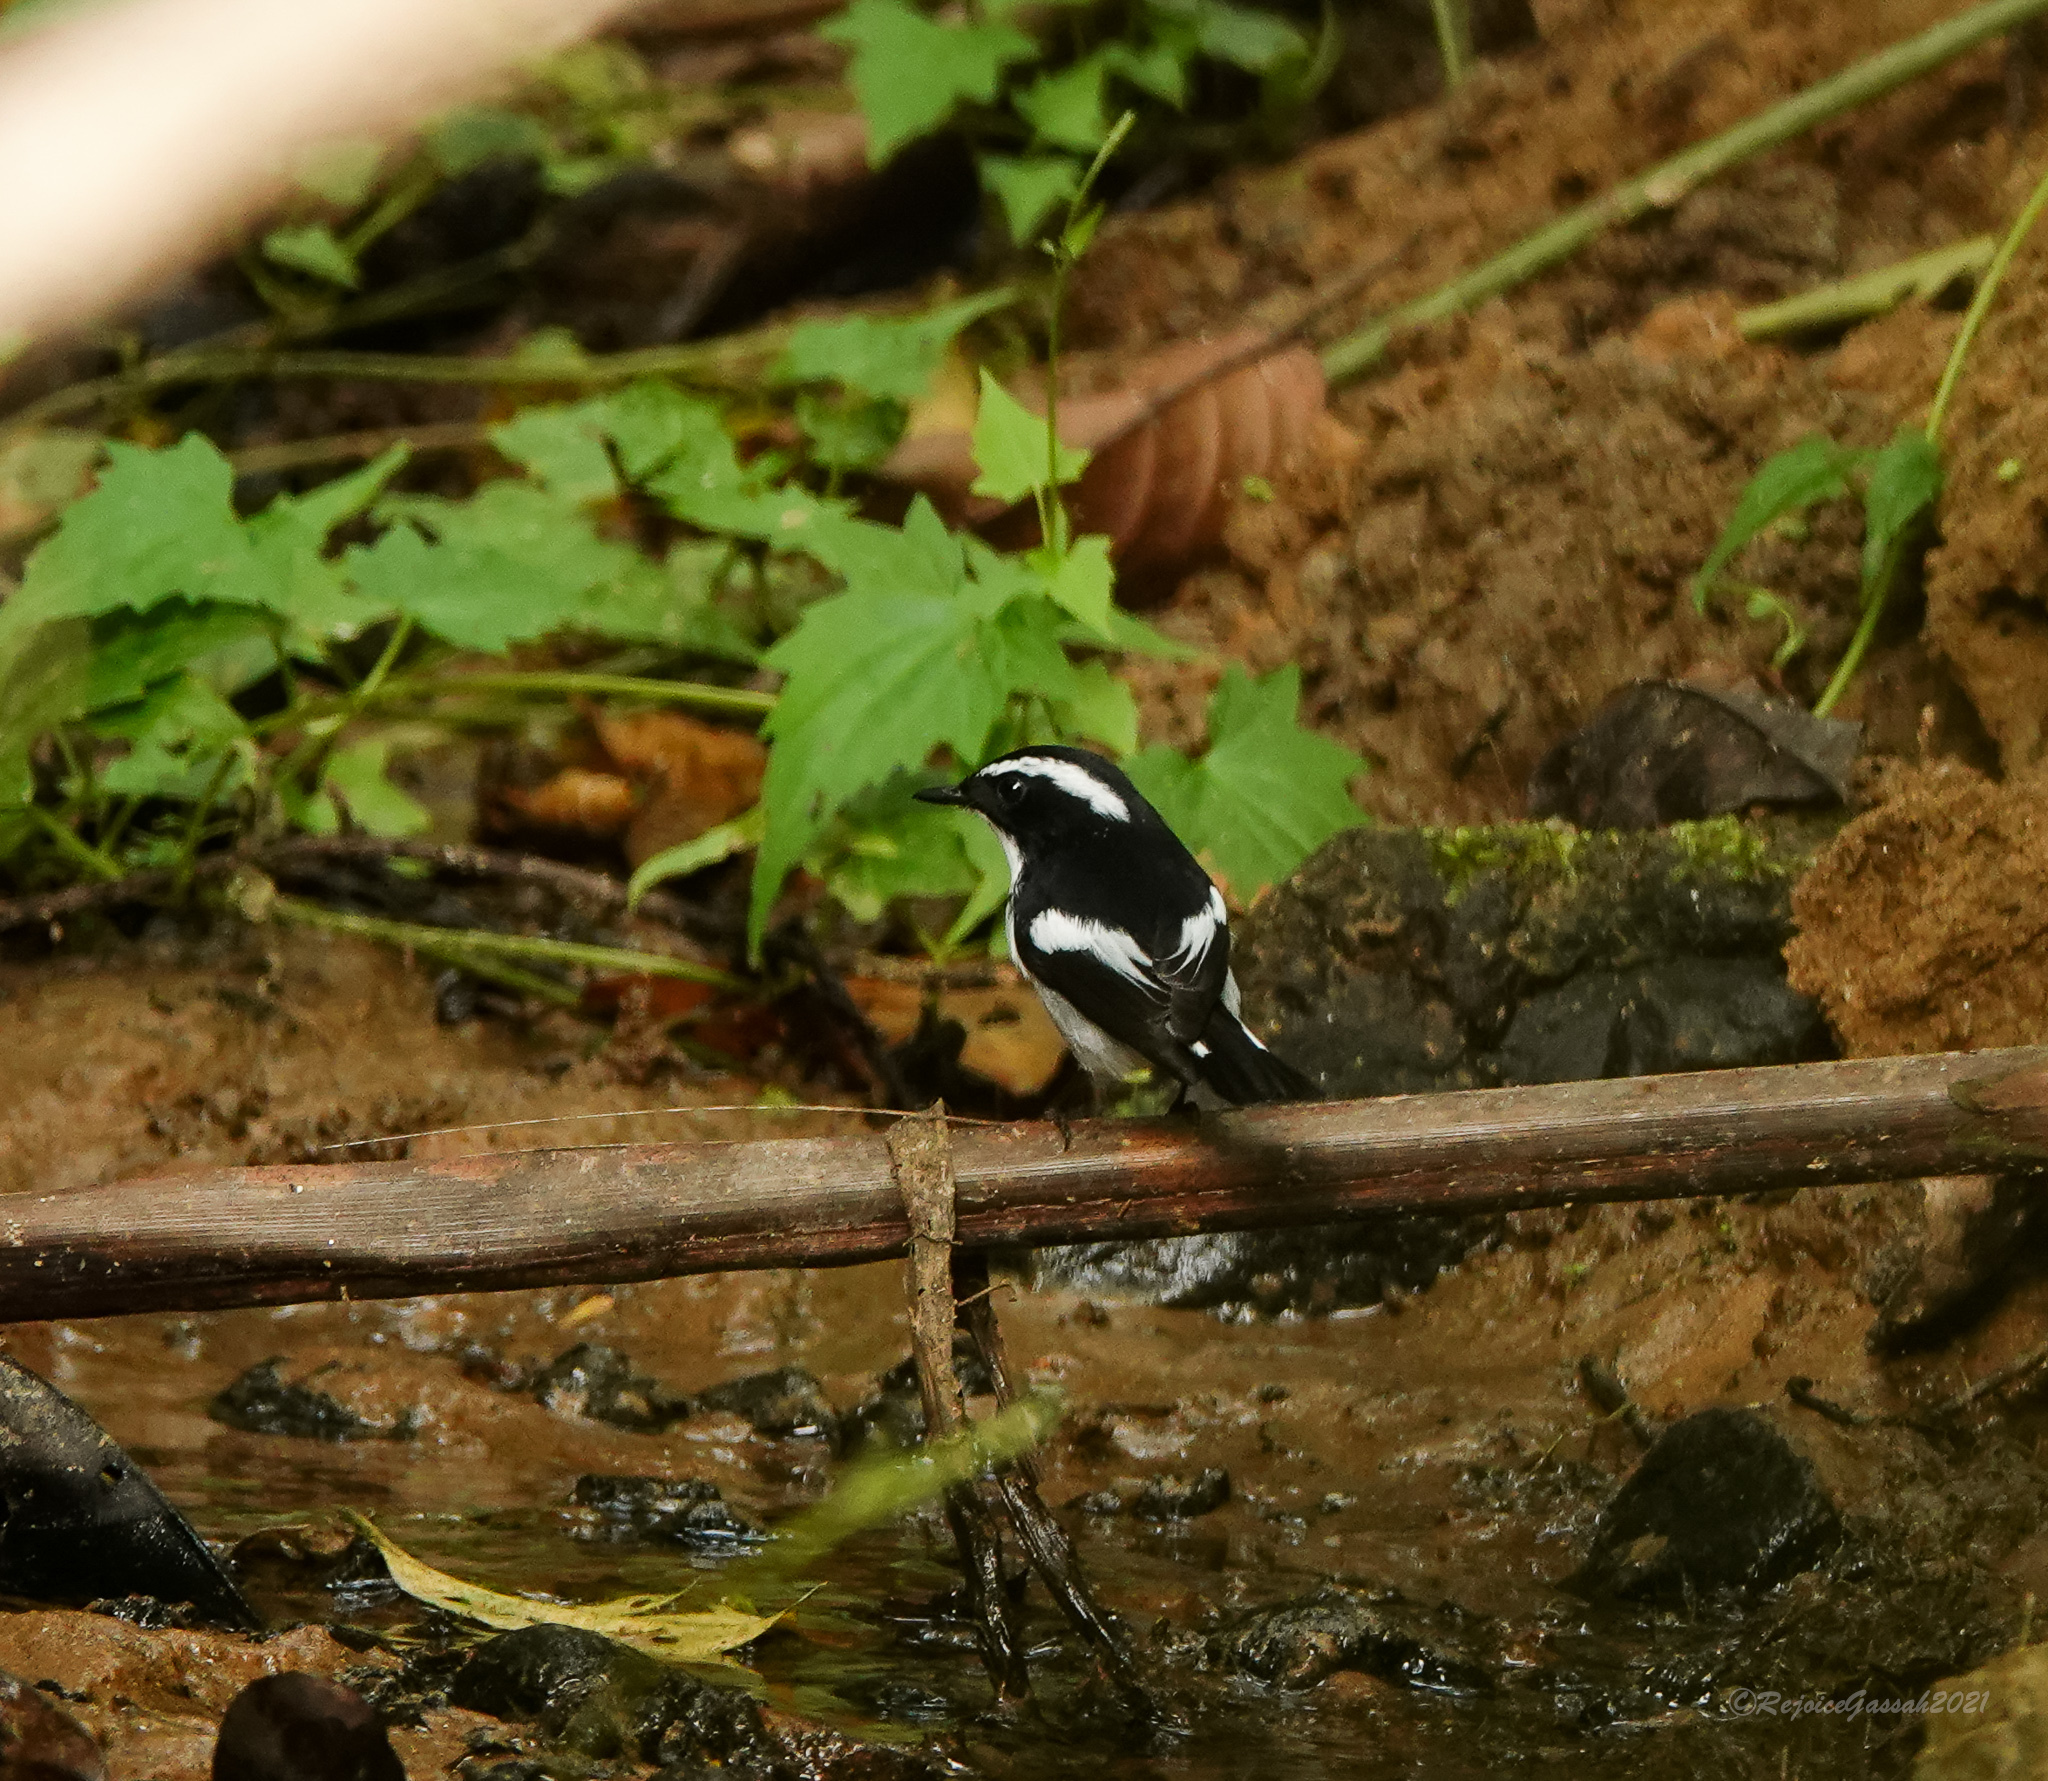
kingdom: Animalia
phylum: Chordata
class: Aves
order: Passeriformes
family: Muscicapidae
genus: Ficedula
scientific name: Ficedula westermanni
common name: Little pied flycatcher
